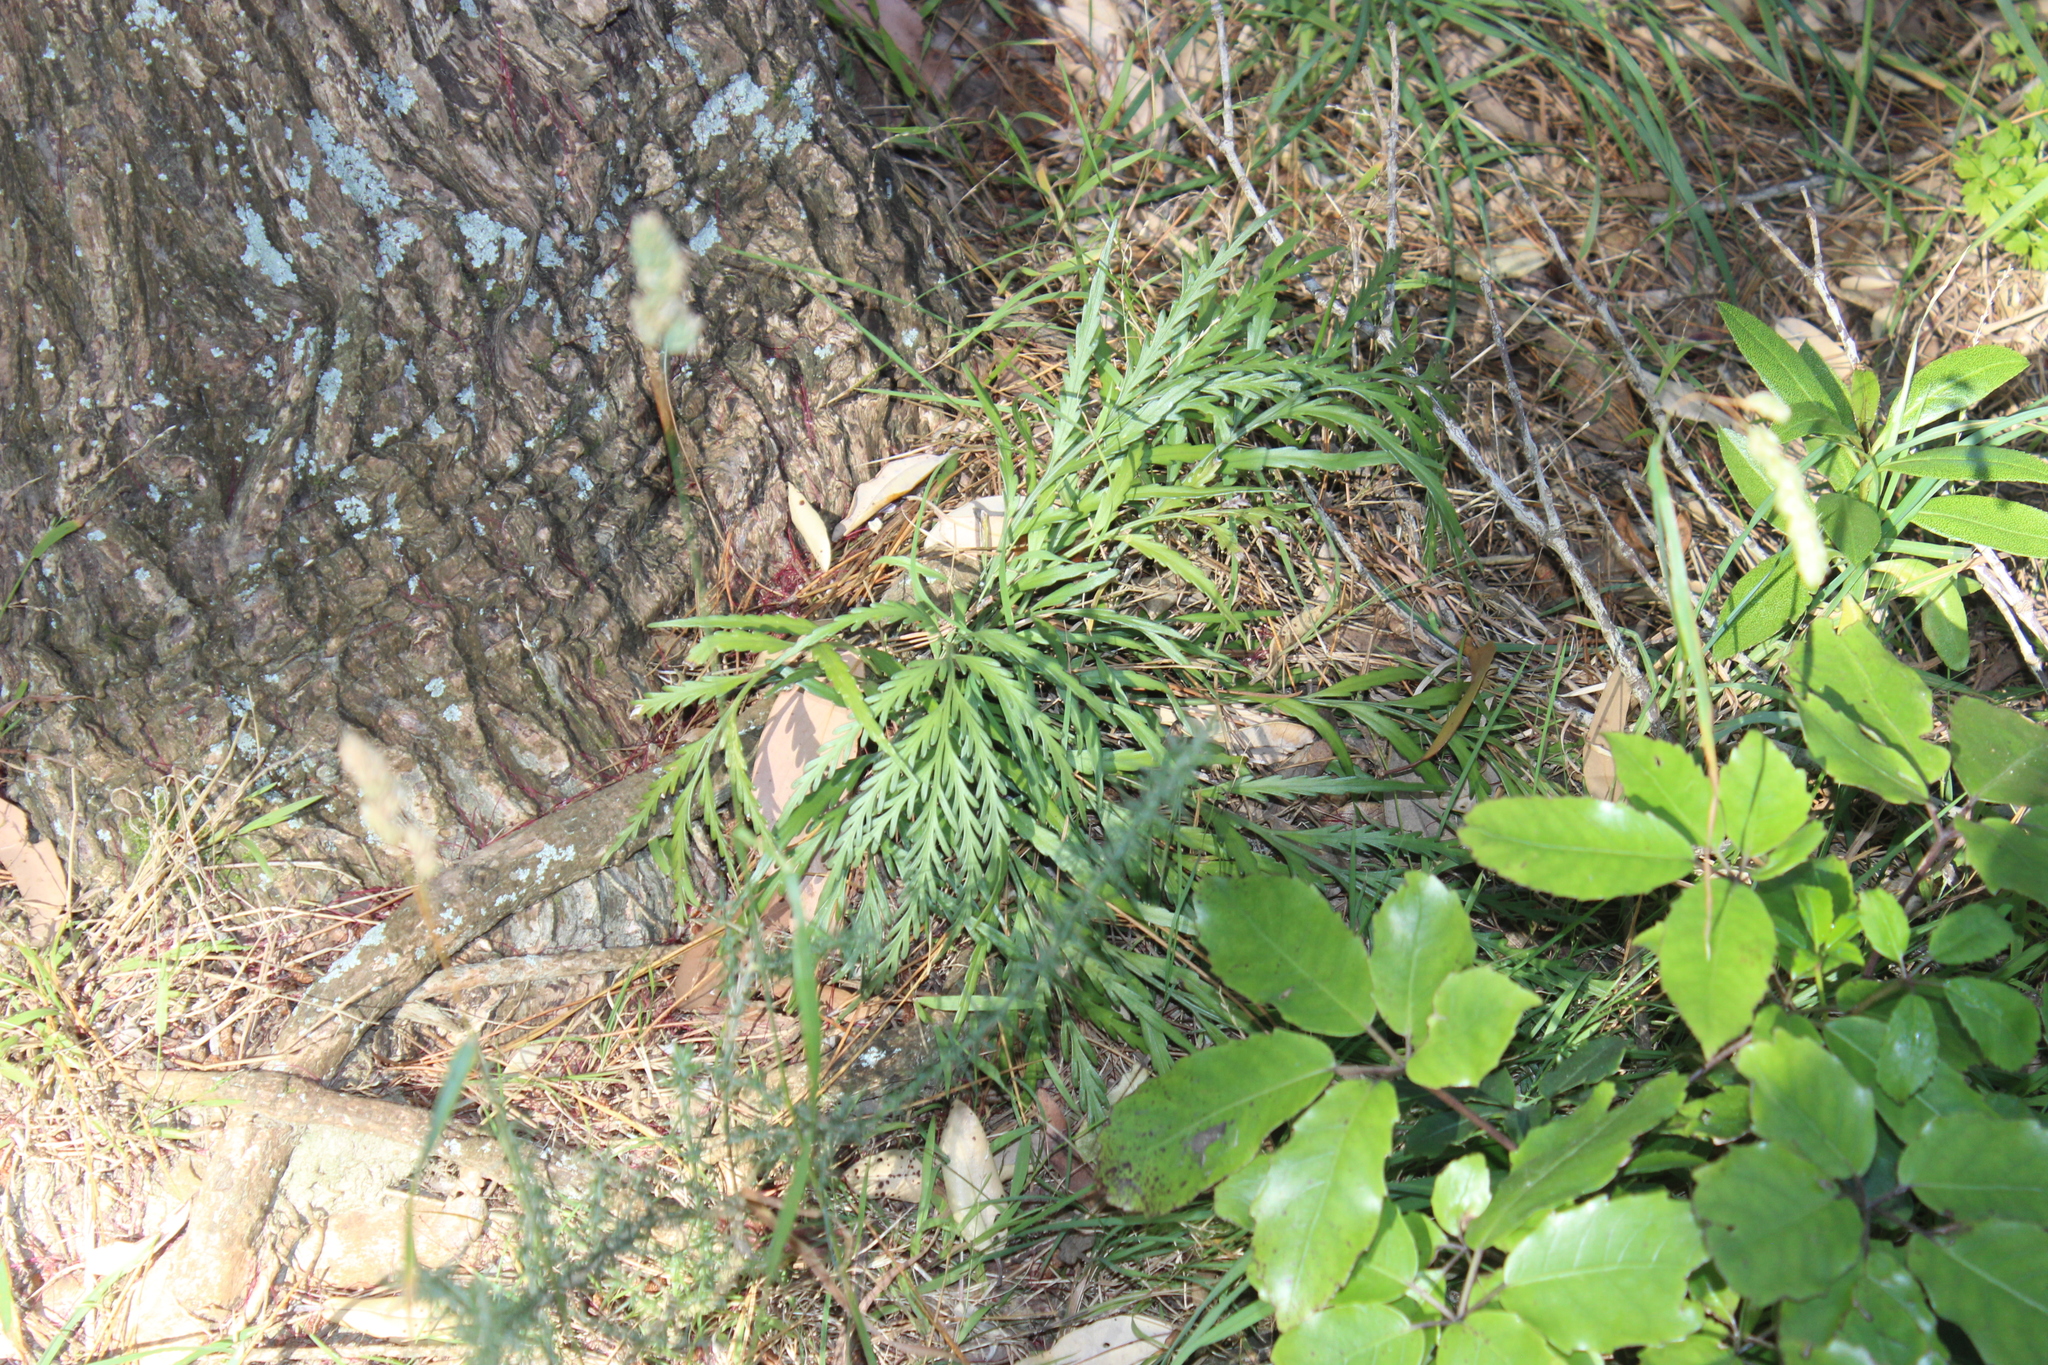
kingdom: Plantae
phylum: Tracheophyta
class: Polypodiopsida
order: Polypodiales
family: Aspleniaceae
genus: Asplenium
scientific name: Asplenium flaccidum
